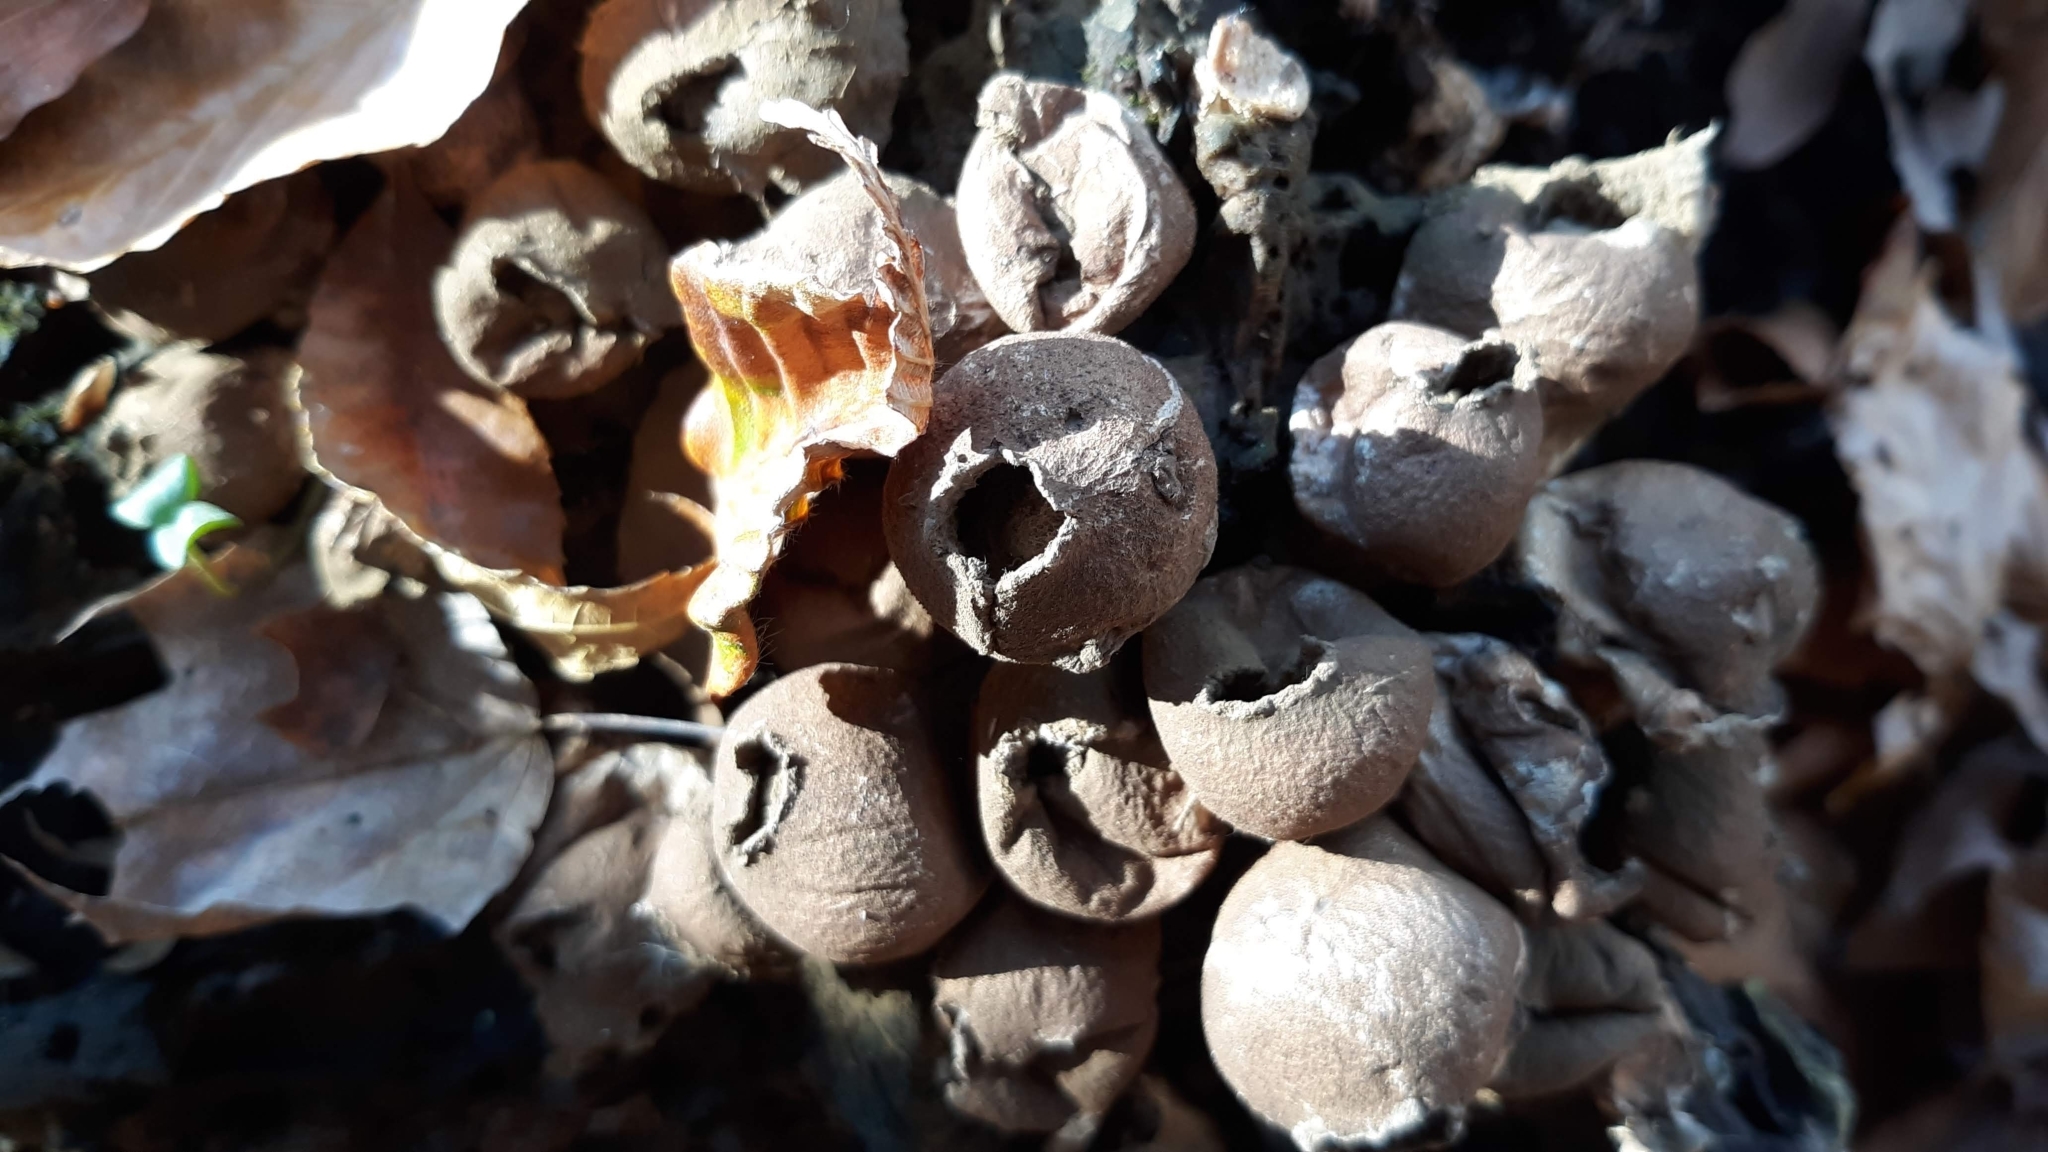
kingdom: Fungi
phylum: Basidiomycota
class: Agaricomycetes
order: Agaricales
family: Lycoperdaceae
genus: Apioperdon
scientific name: Apioperdon pyriforme
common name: Pear-shaped puffball
